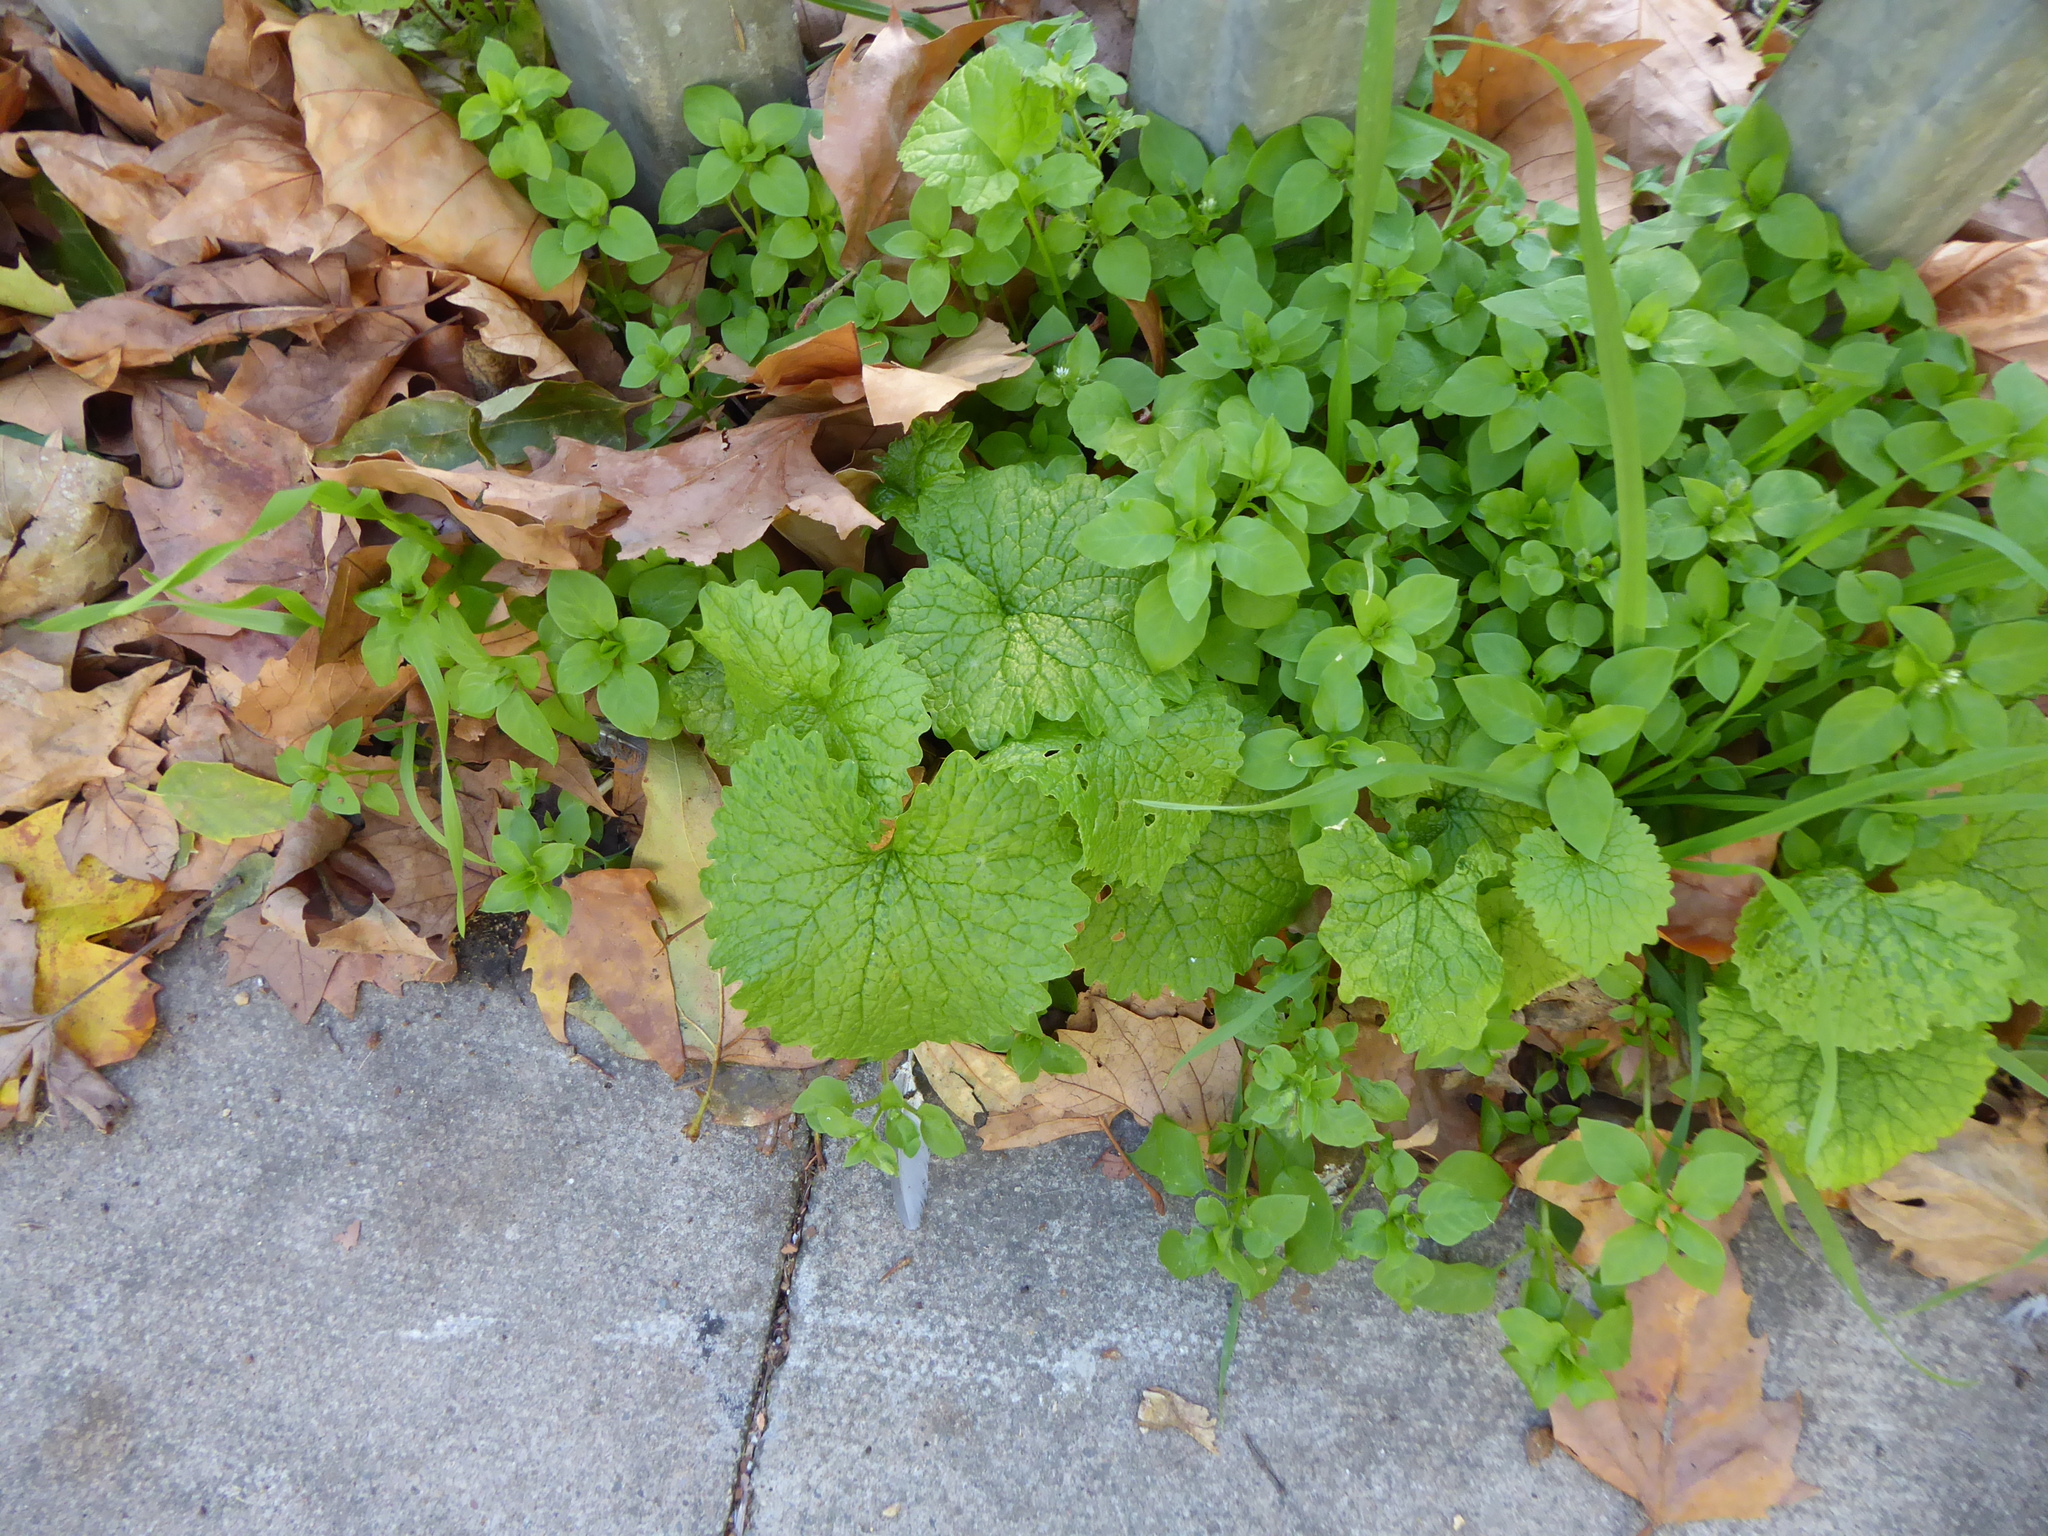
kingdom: Plantae
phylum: Tracheophyta
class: Magnoliopsida
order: Brassicales
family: Brassicaceae
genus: Alliaria
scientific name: Alliaria petiolata
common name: Garlic mustard
